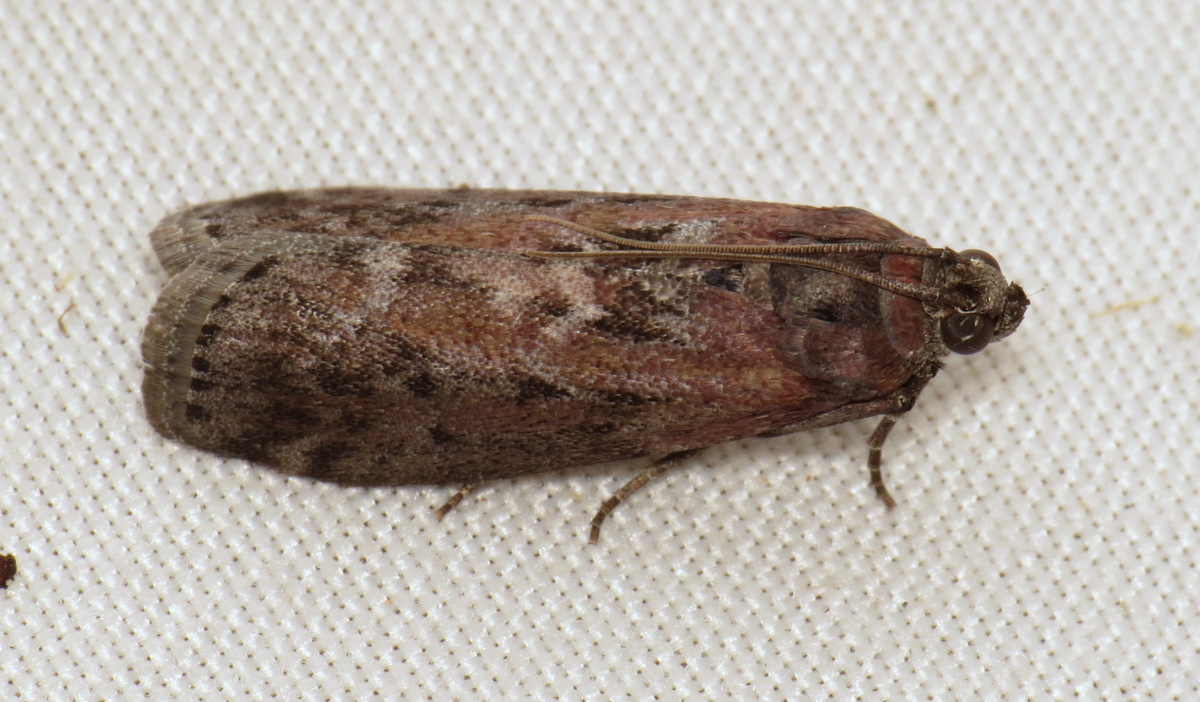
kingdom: Animalia
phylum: Arthropoda
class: Insecta
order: Lepidoptera
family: Pyralidae
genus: Sciota
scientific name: Sciota virgatella
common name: Black-spotted leafroller moth
